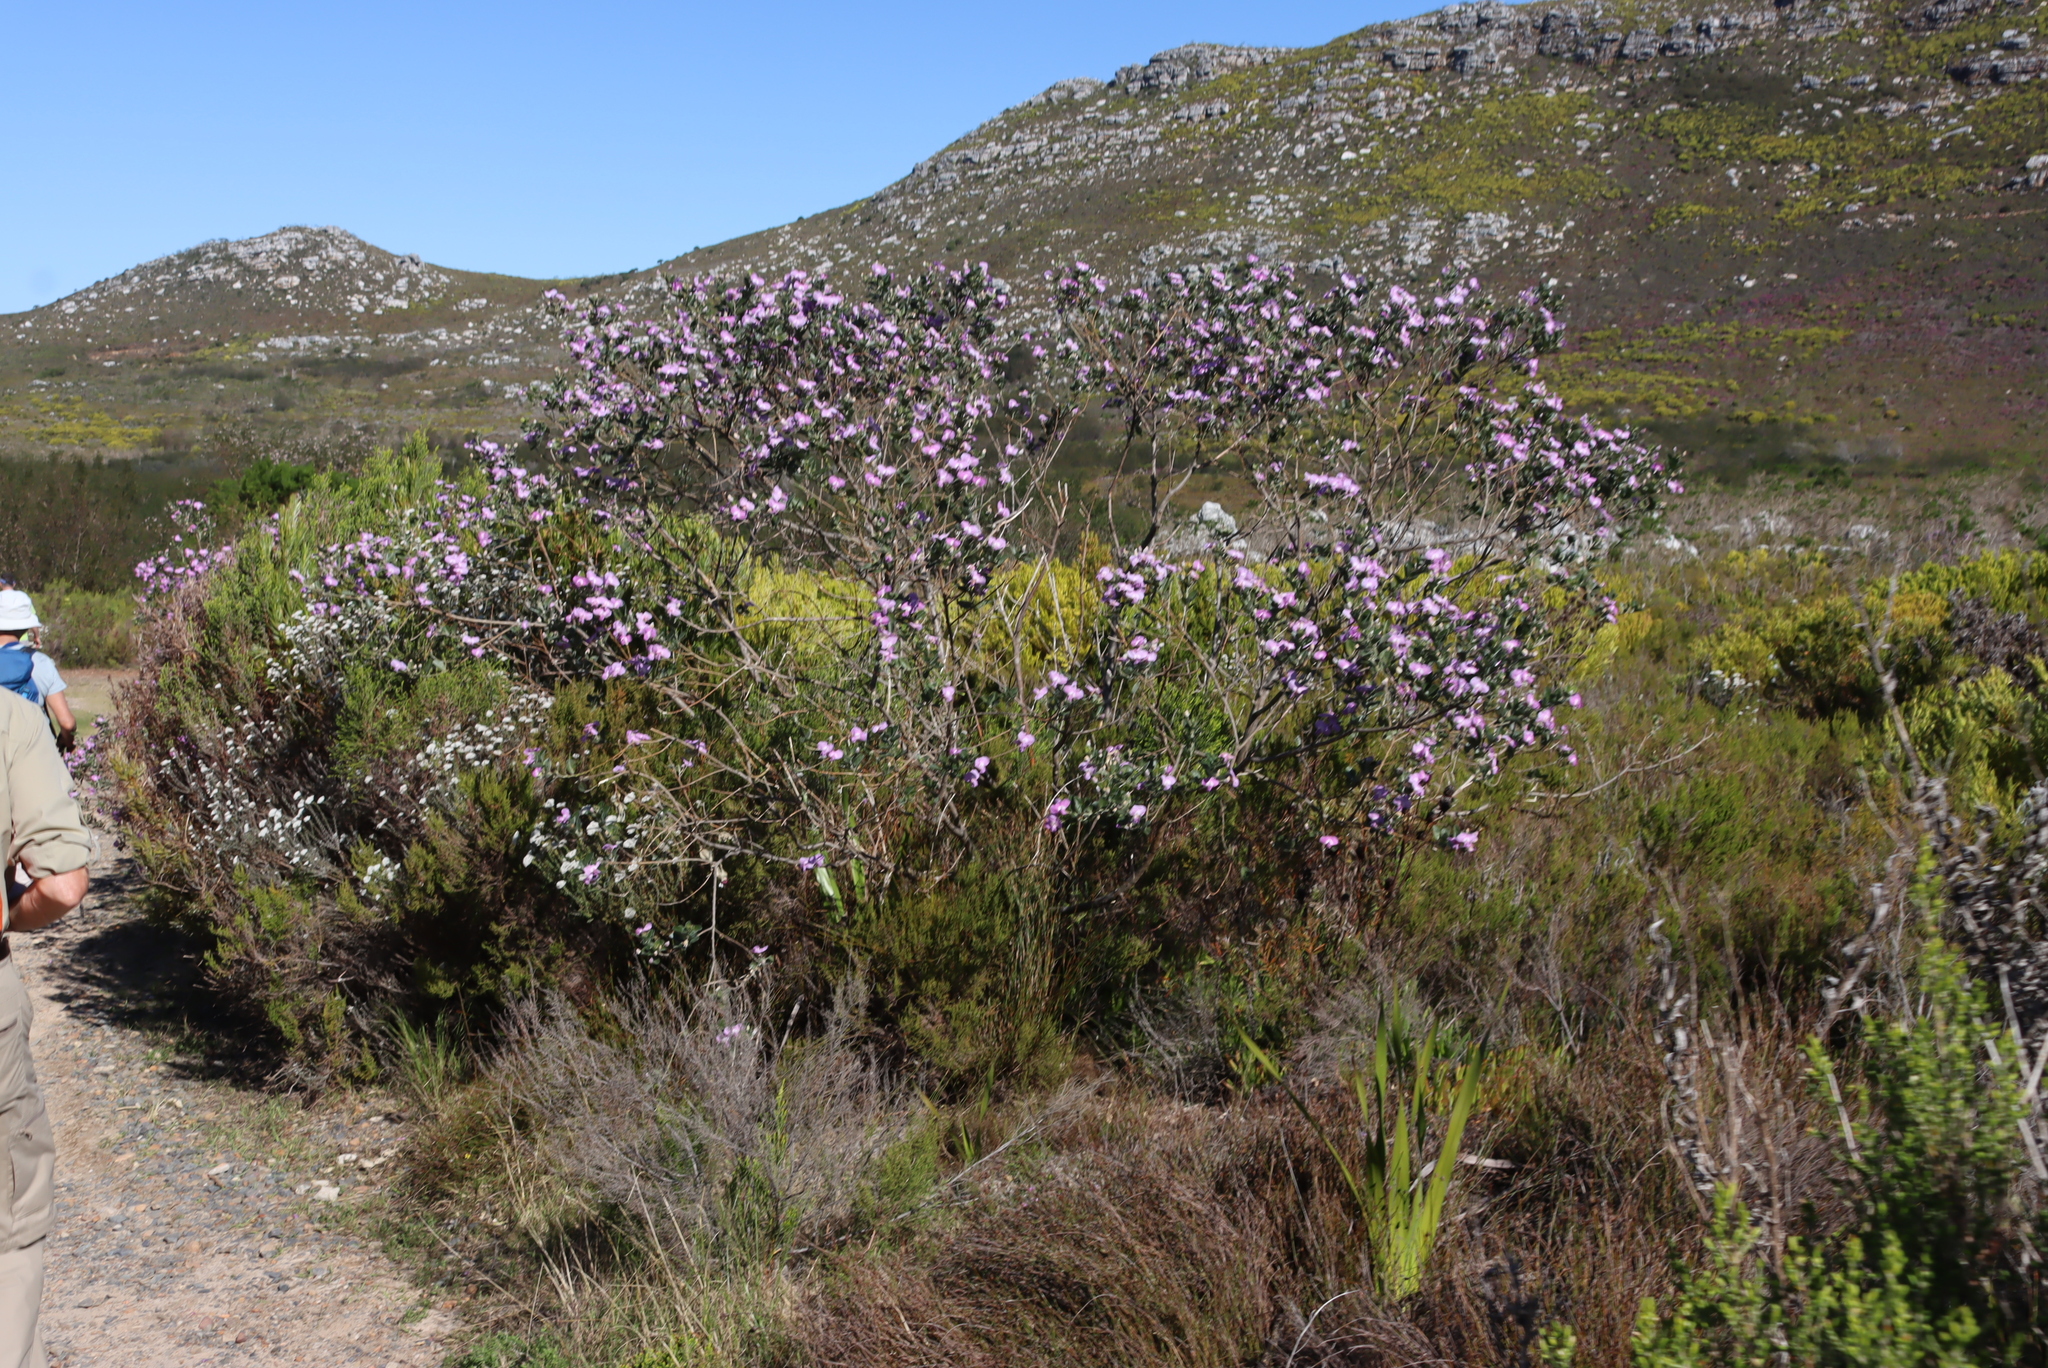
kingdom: Plantae
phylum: Tracheophyta
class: Magnoliopsida
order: Fabales
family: Fabaceae
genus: Podalyria
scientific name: Podalyria calyptrata
